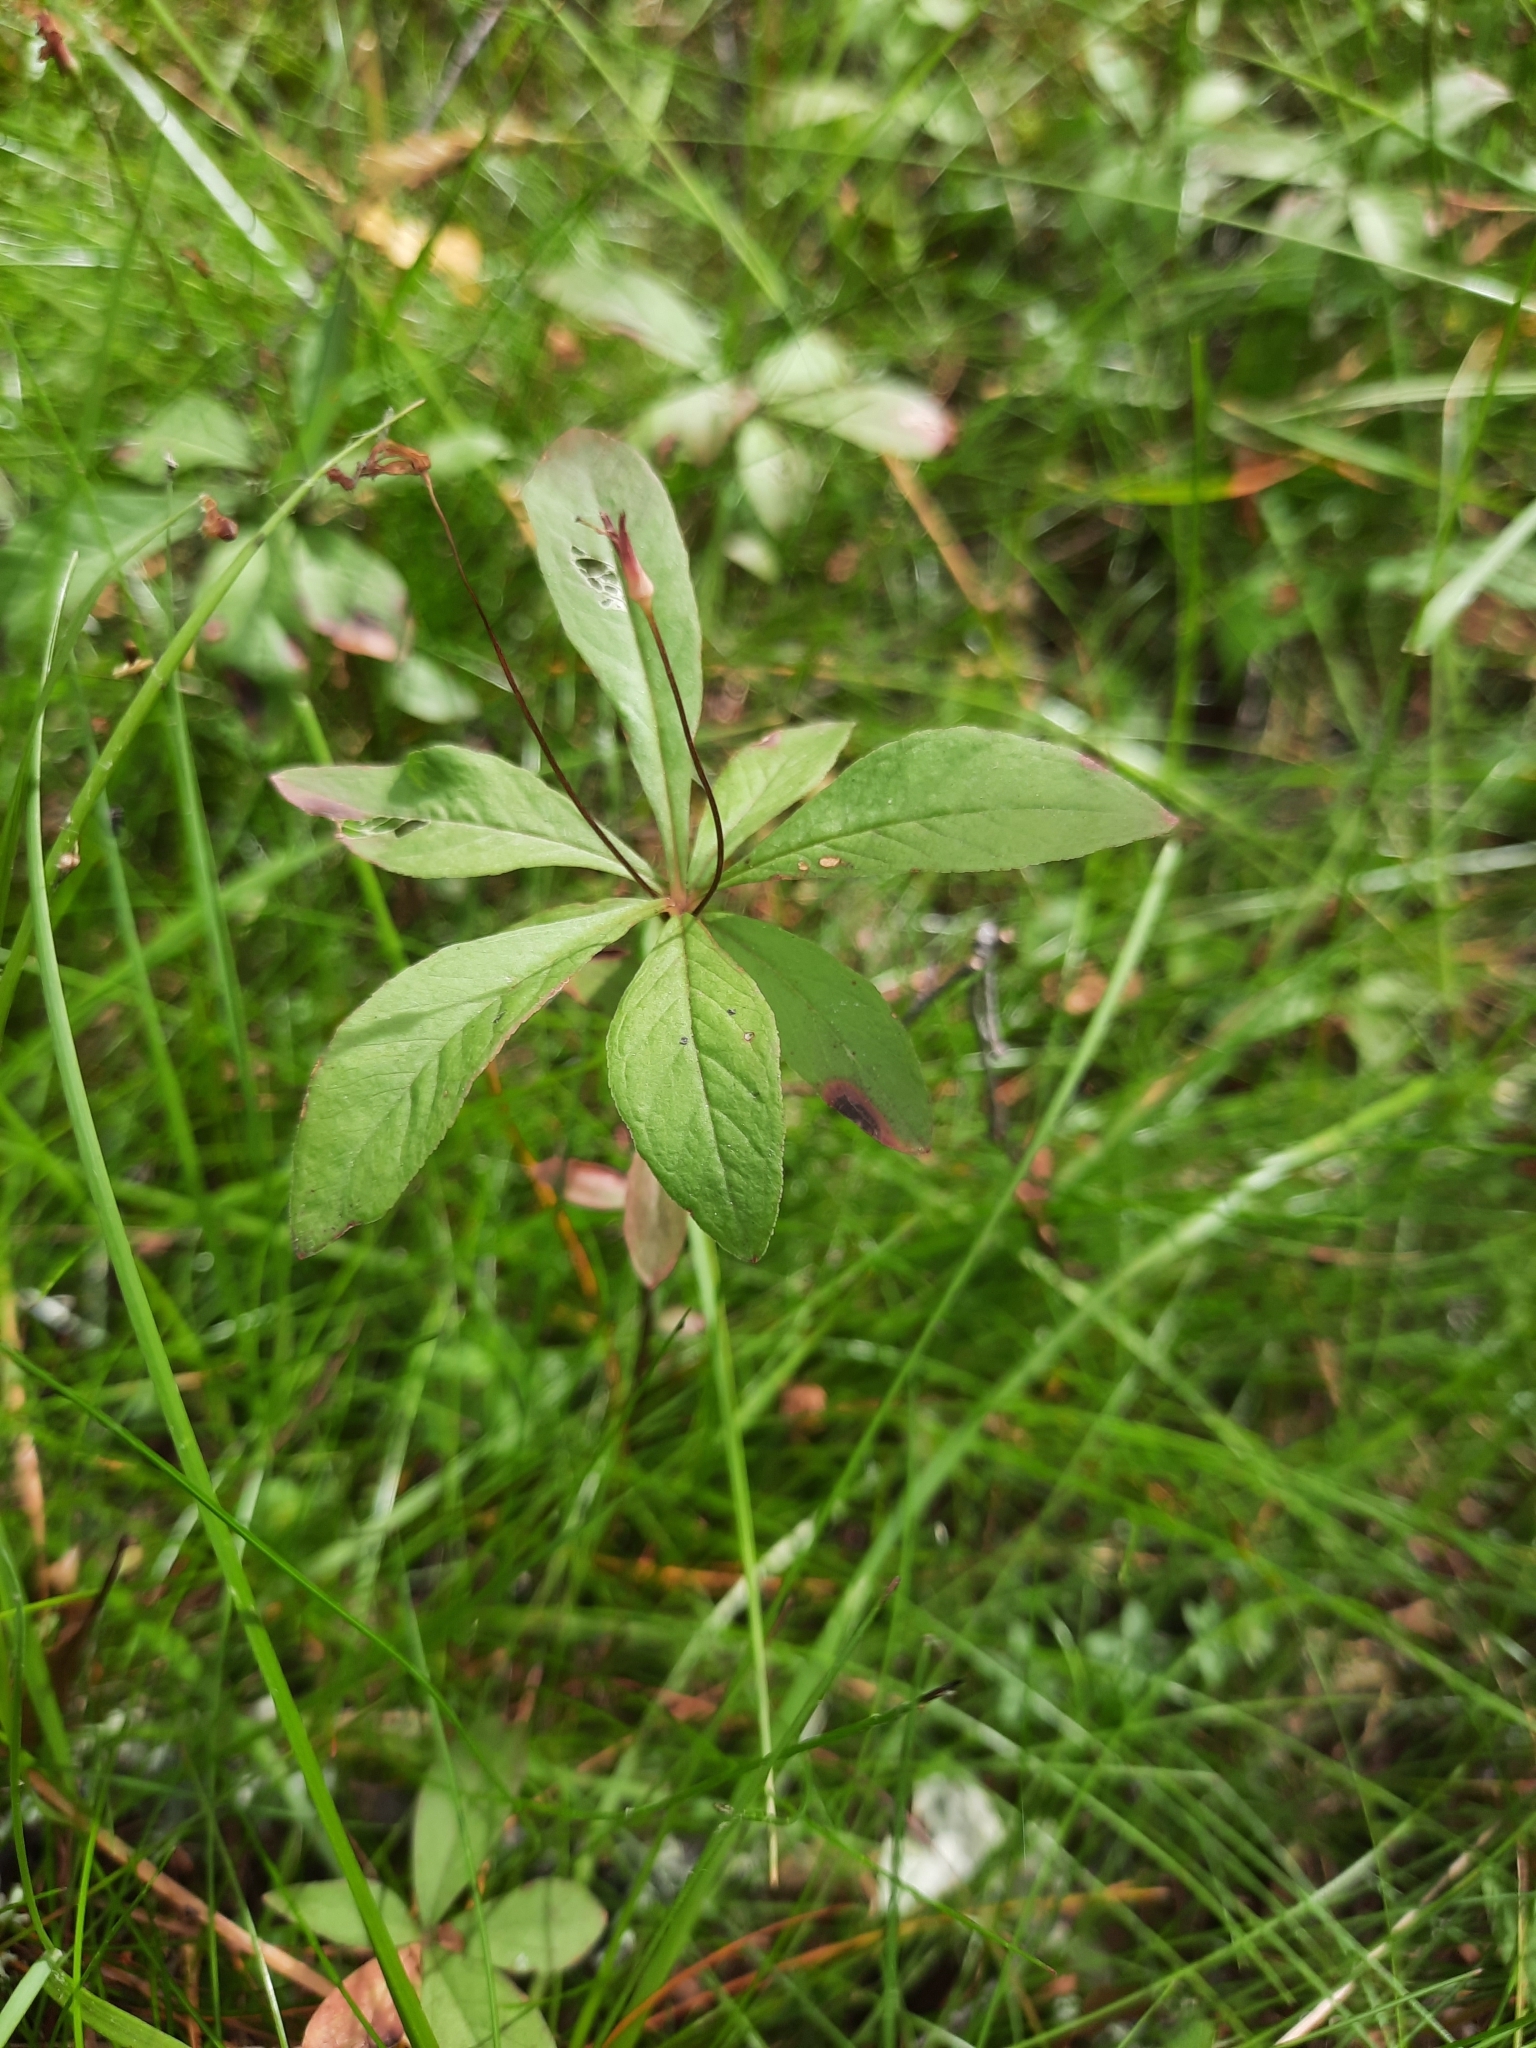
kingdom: Plantae
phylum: Tracheophyta
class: Magnoliopsida
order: Ericales
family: Primulaceae
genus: Lysimachia
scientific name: Lysimachia europaea
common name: Arctic starflower
